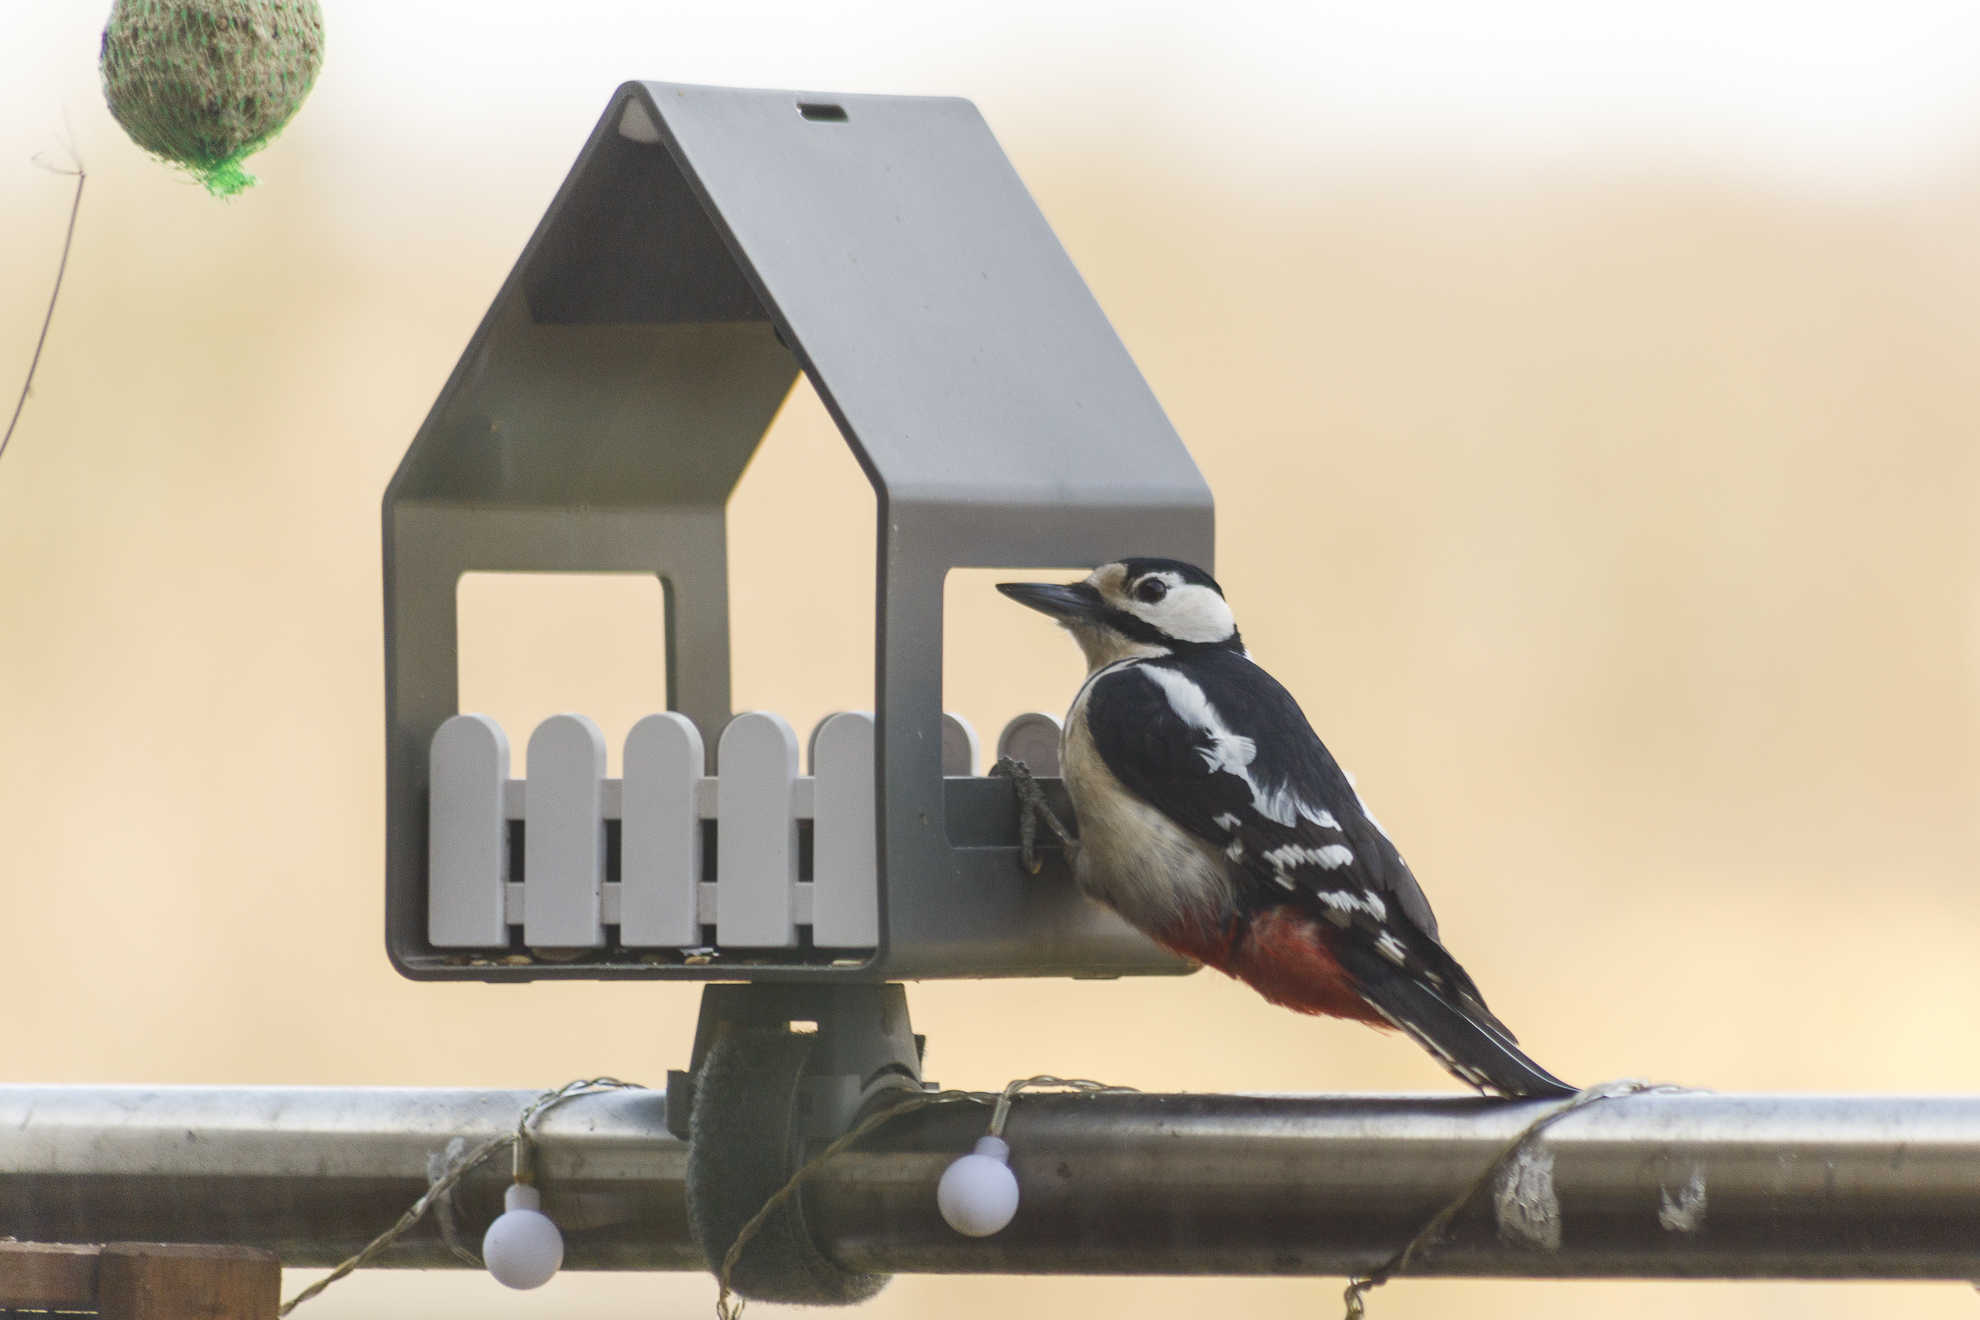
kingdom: Animalia
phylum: Chordata
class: Aves
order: Piciformes
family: Picidae
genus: Dendrocopos
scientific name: Dendrocopos major
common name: Great spotted woodpecker
